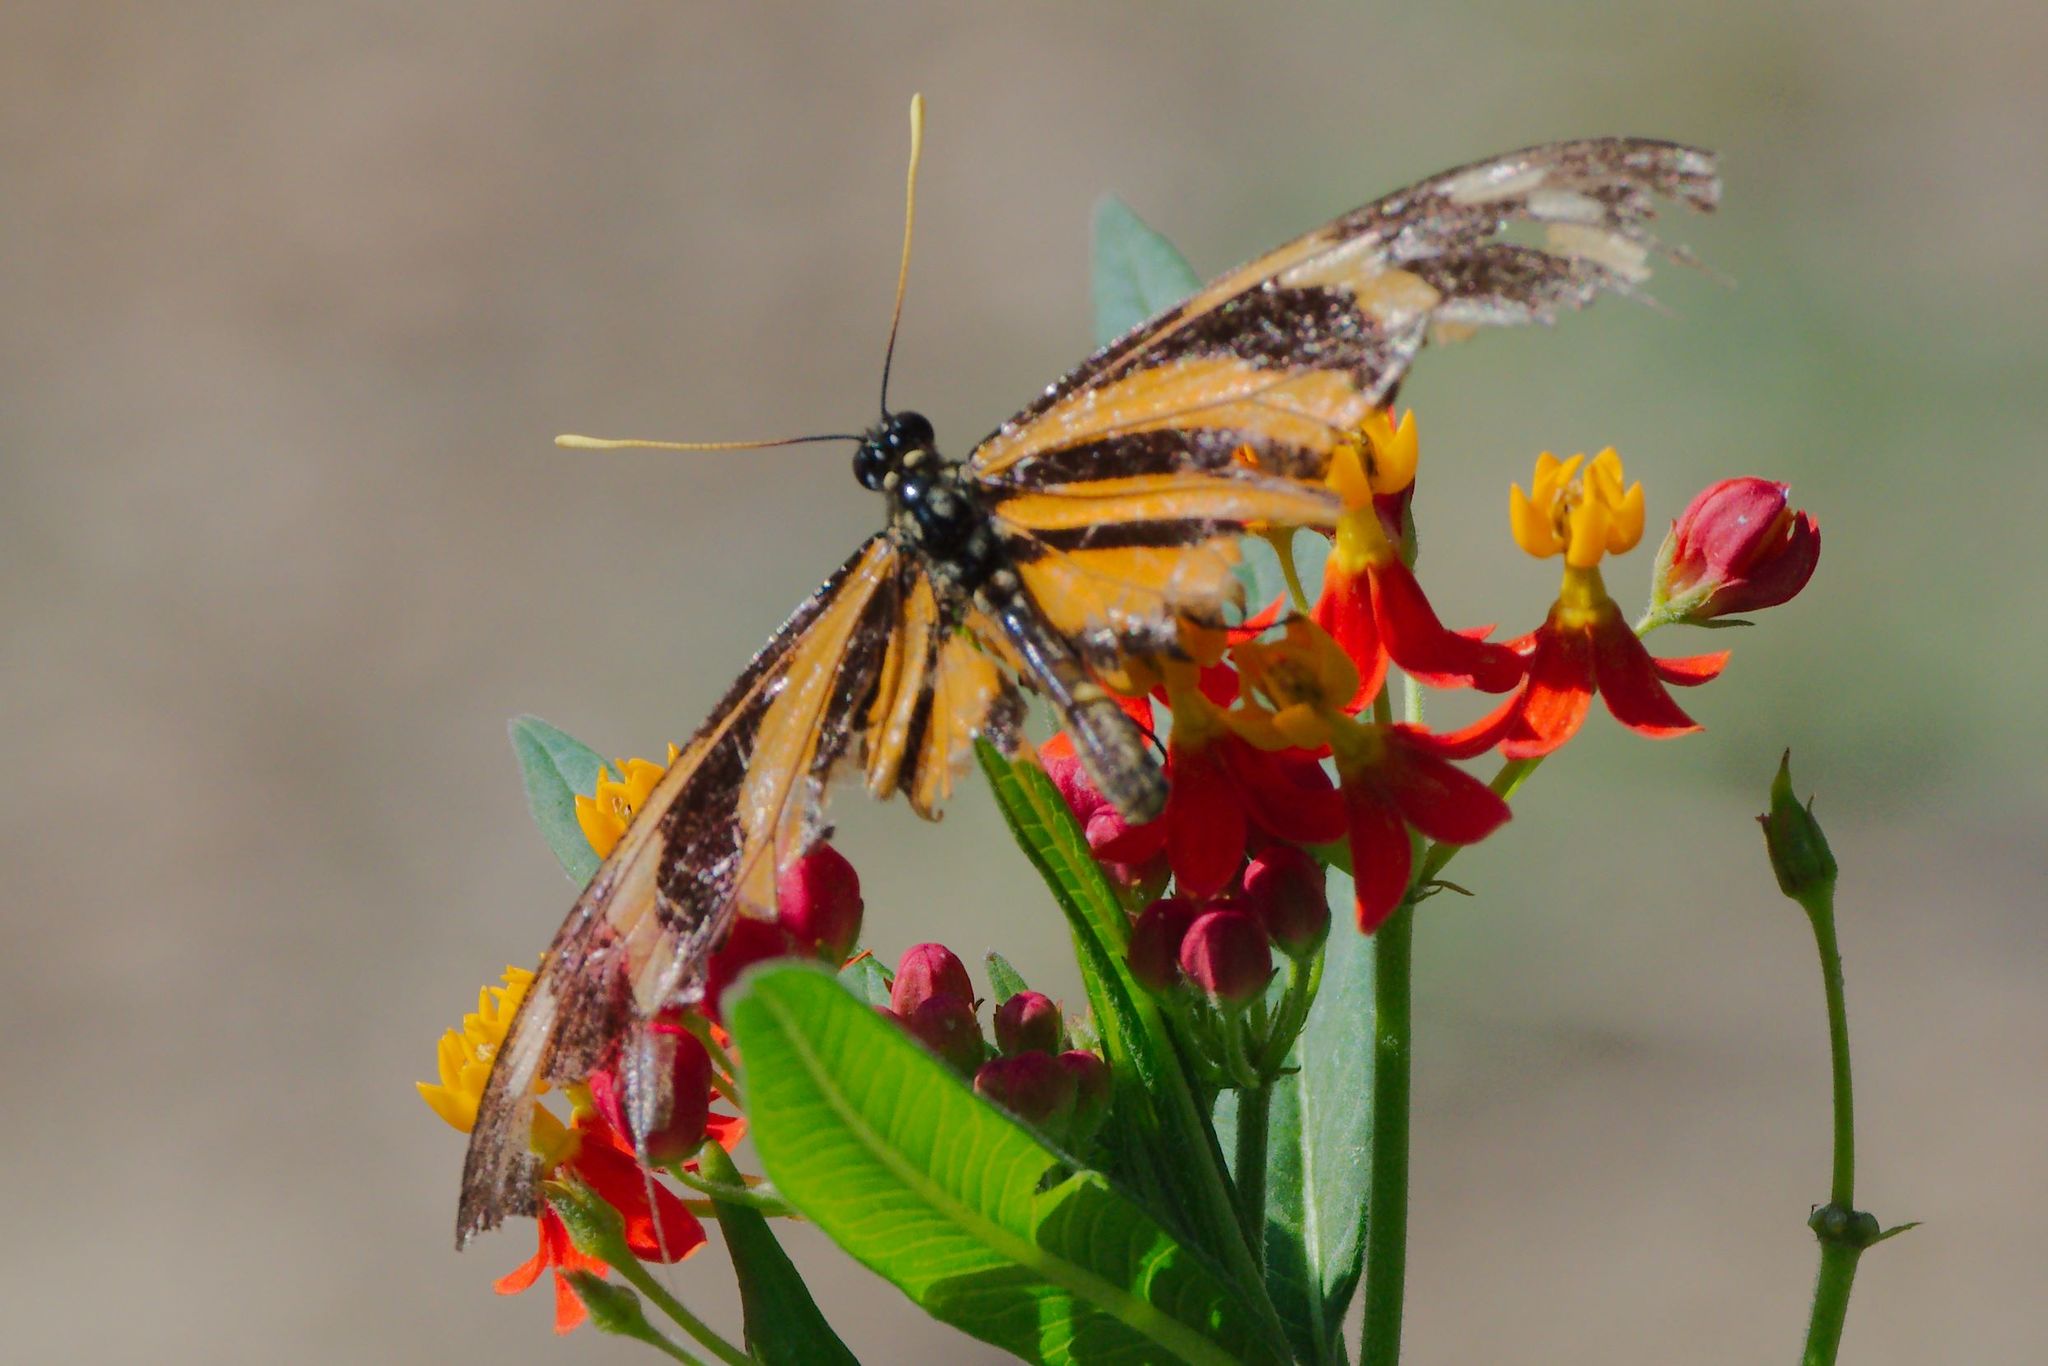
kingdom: Animalia
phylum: Arthropoda
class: Insecta
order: Lepidoptera
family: Nymphalidae
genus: Eueides
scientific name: Eueides isabella
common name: Isabella's longwing
